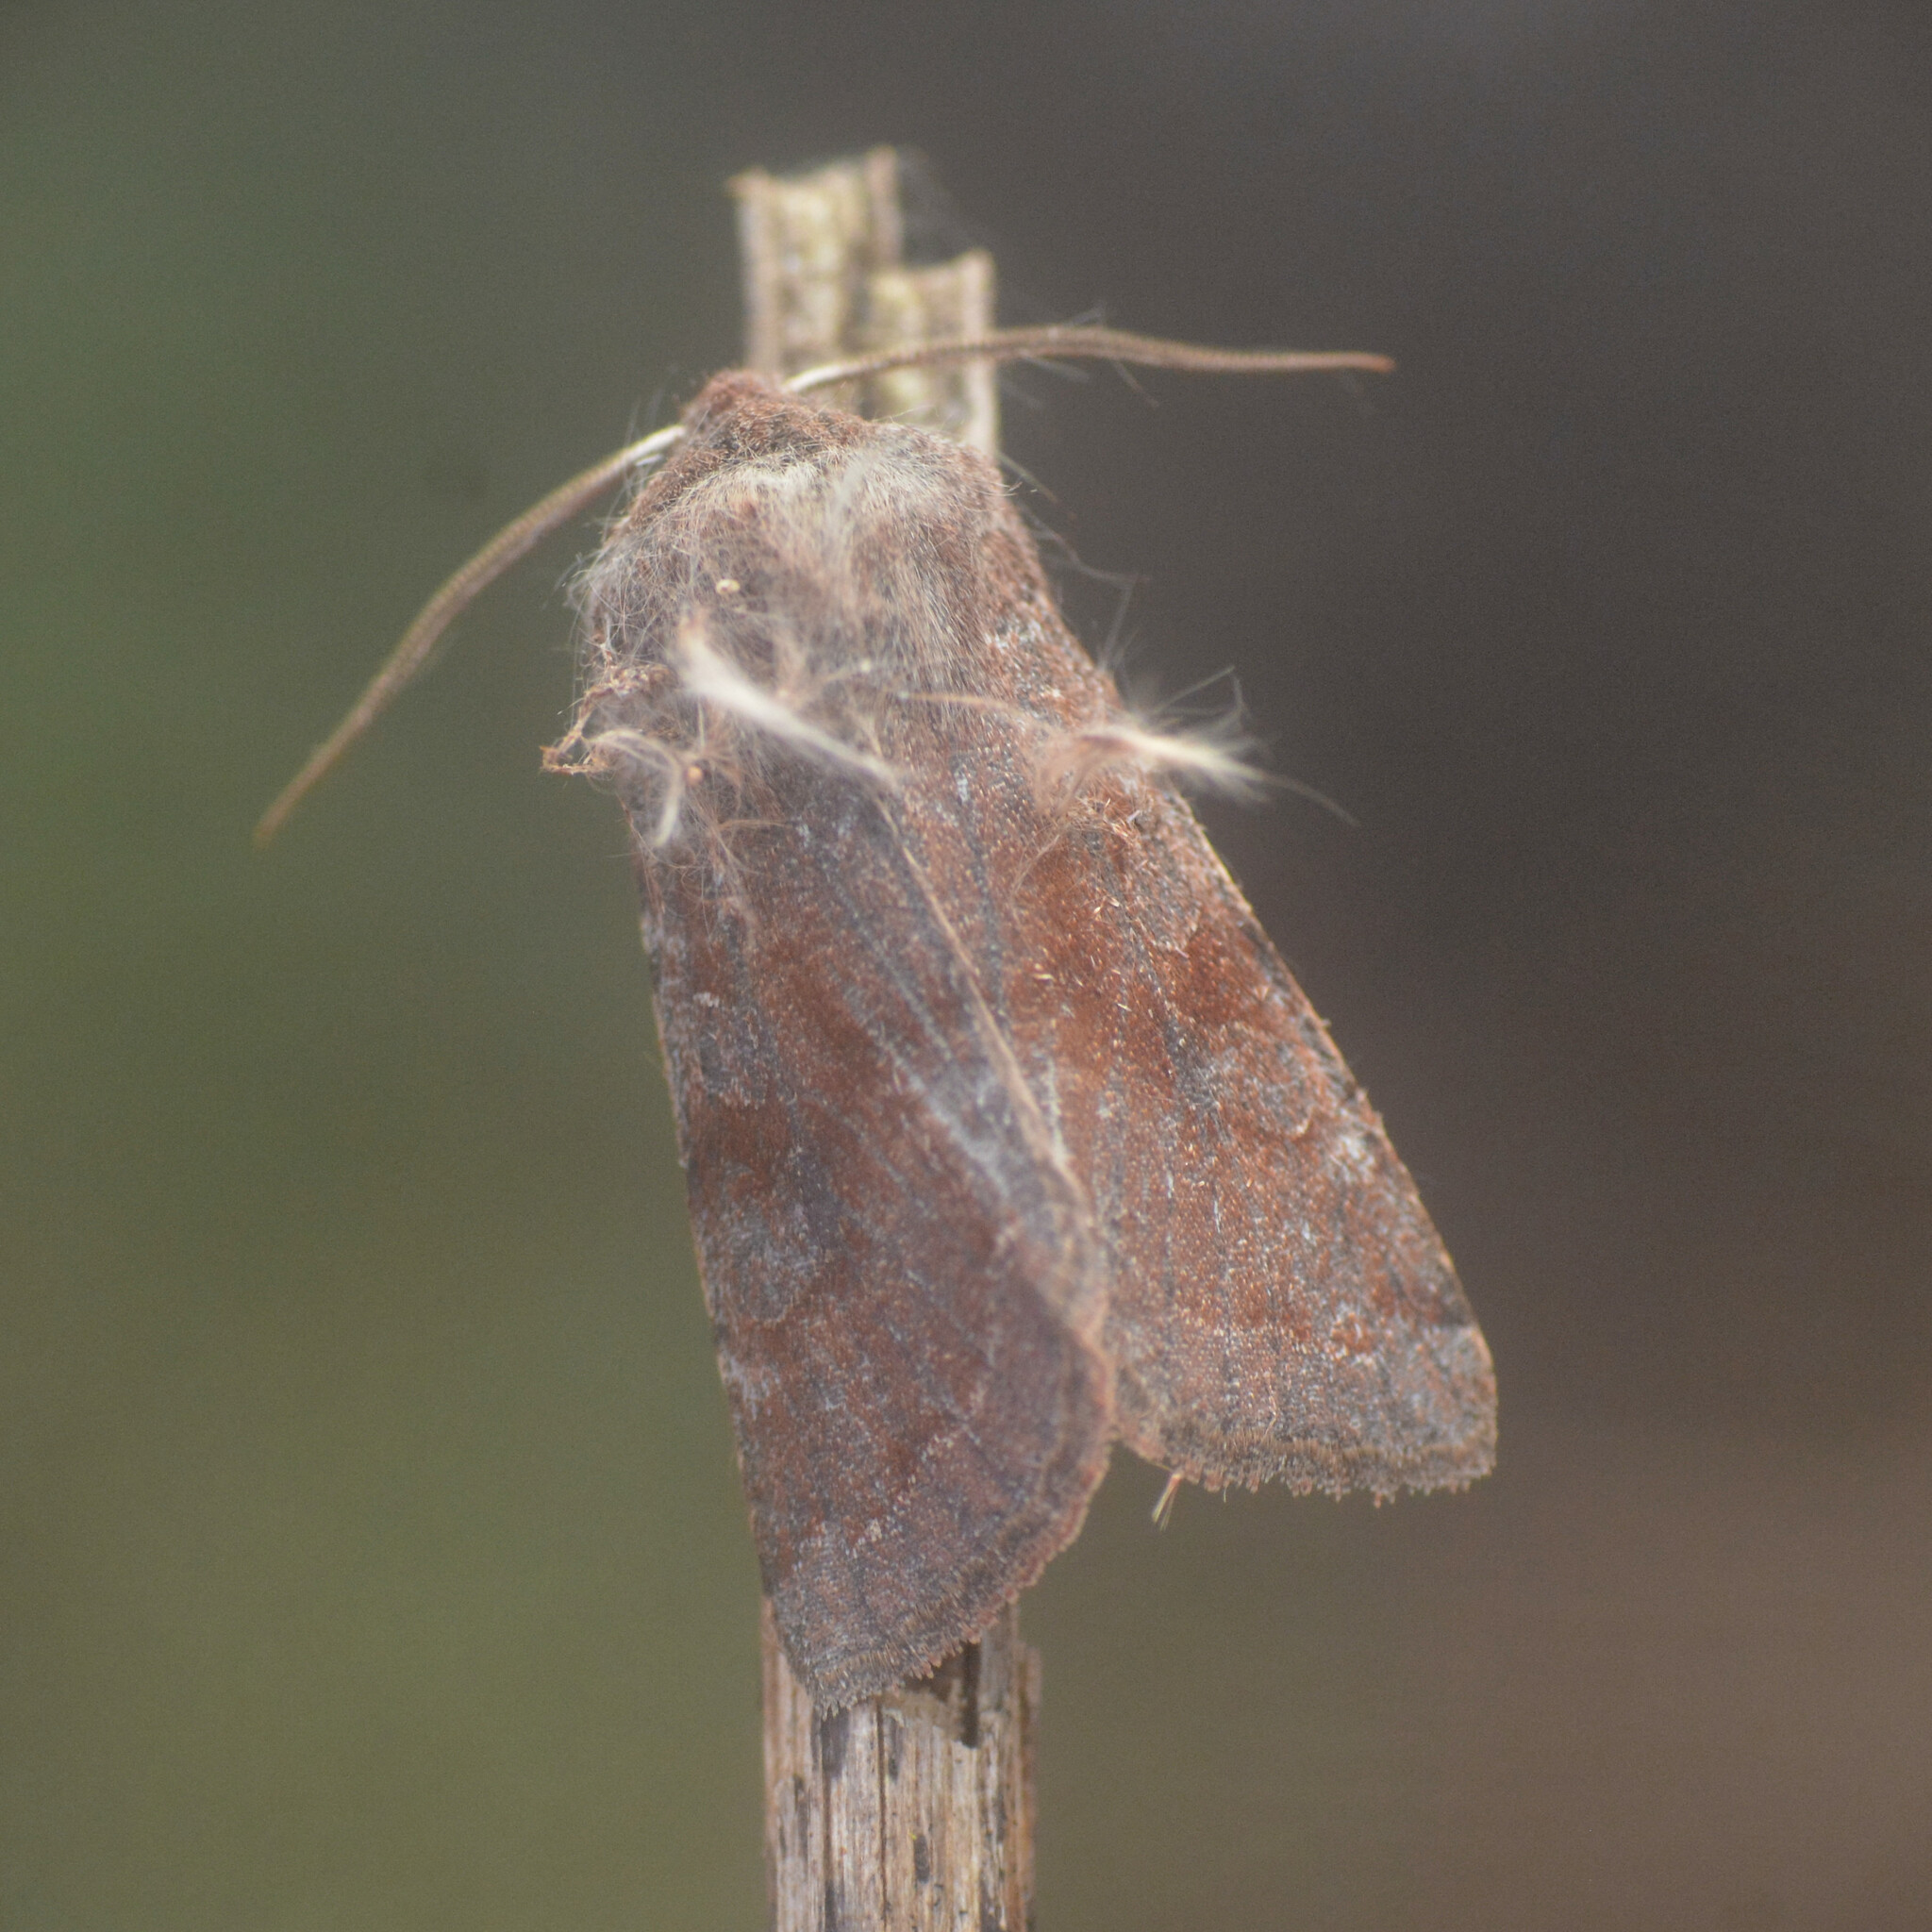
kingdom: Animalia
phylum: Arthropoda
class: Insecta
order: Lepidoptera
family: Noctuidae
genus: Orthosia
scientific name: Orthosia incerta
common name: Clouded drab
